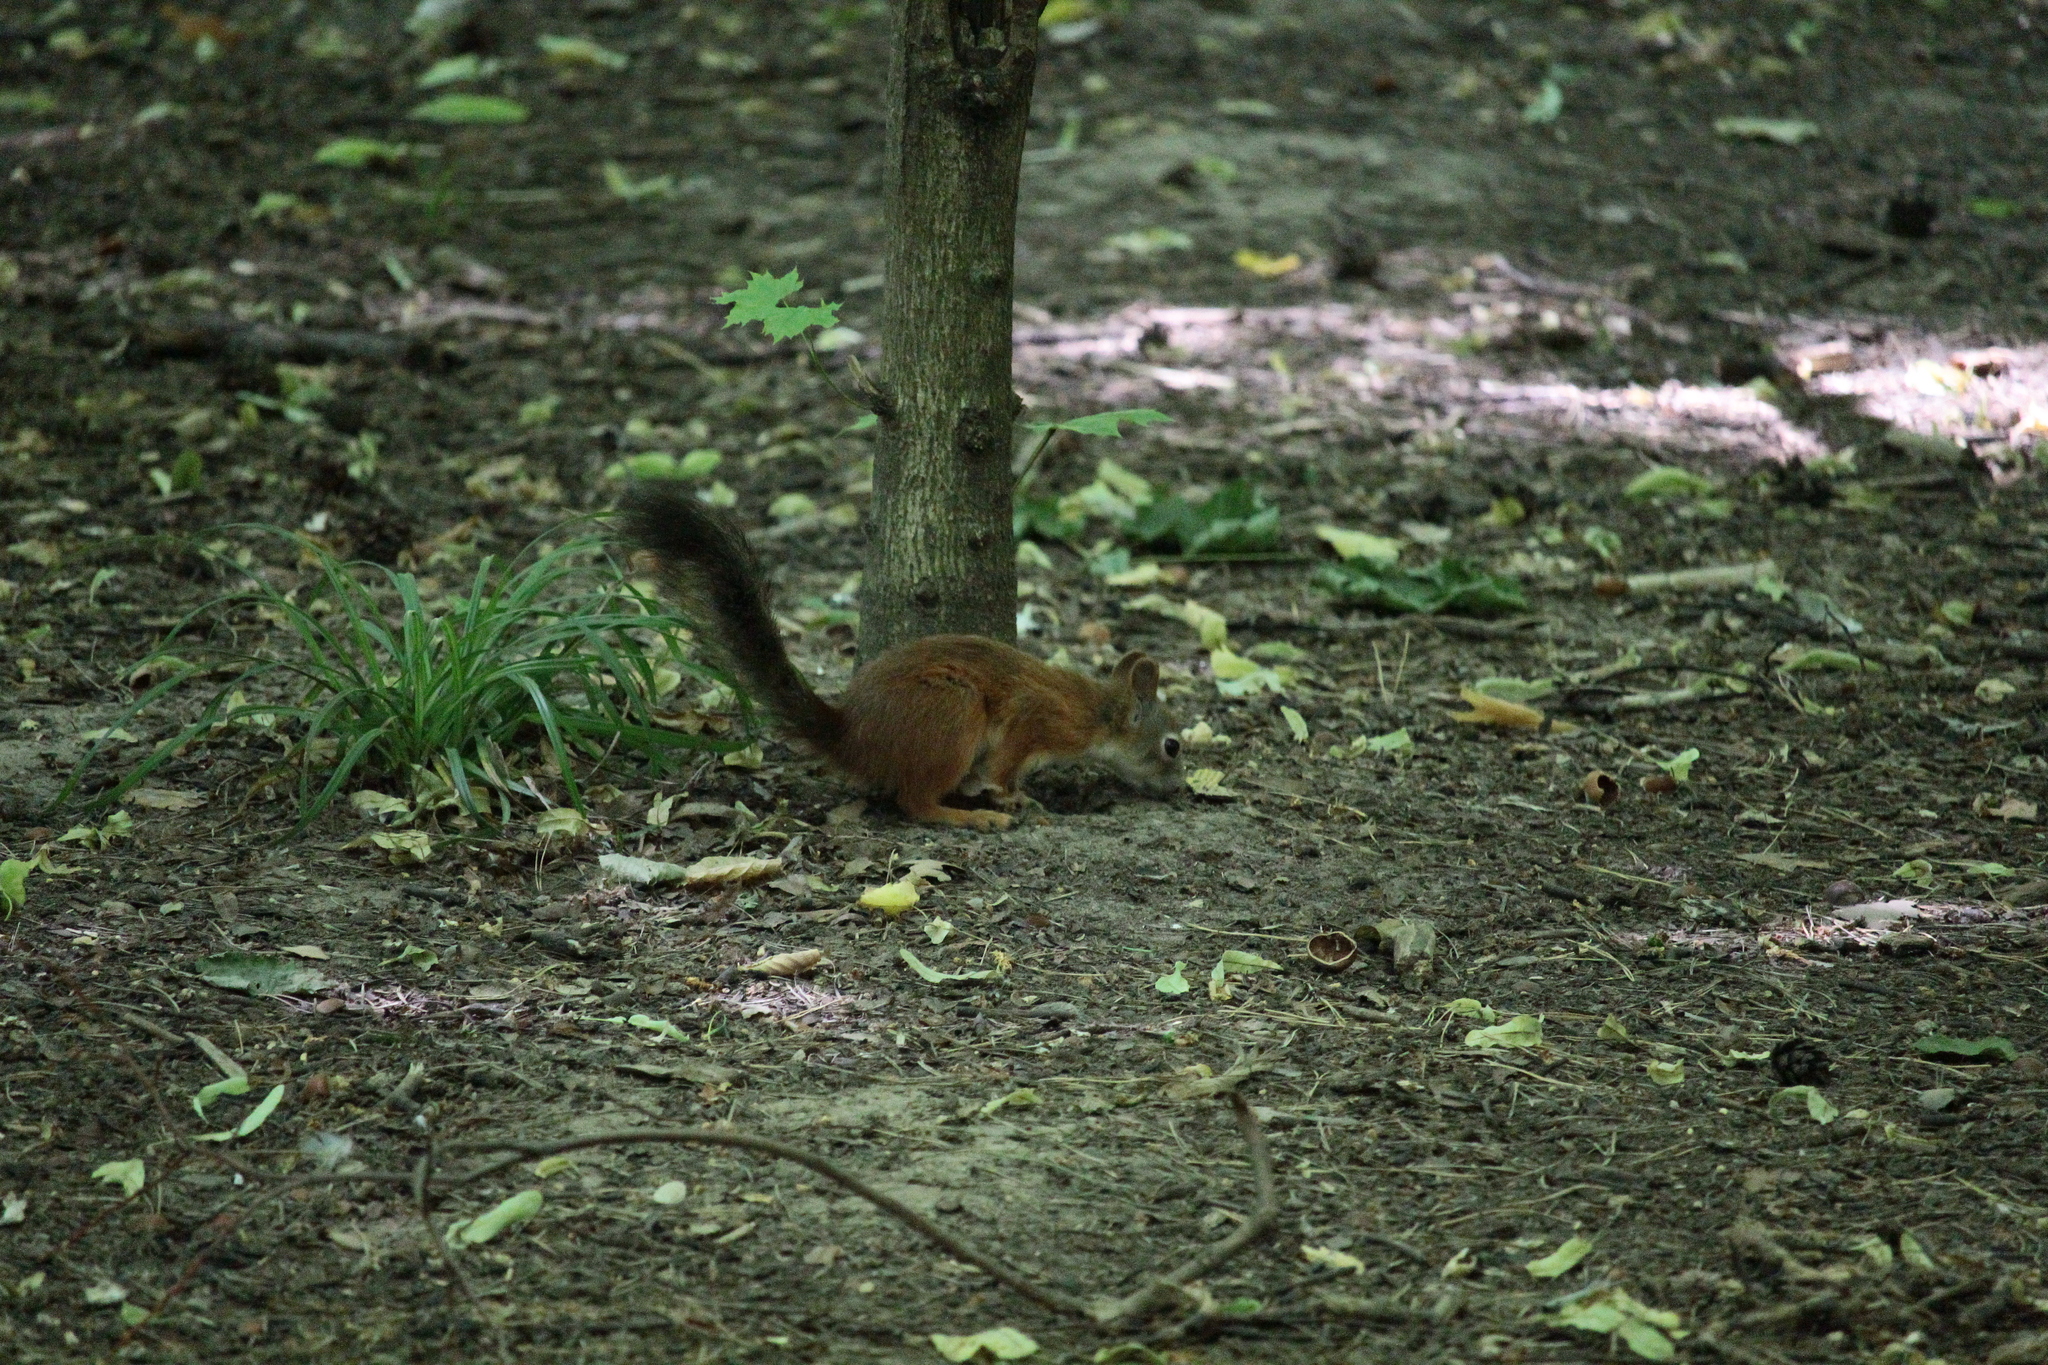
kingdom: Animalia
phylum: Chordata
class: Mammalia
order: Rodentia
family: Sciuridae
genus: Sciurus
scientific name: Sciurus vulgaris
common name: Eurasian red squirrel
